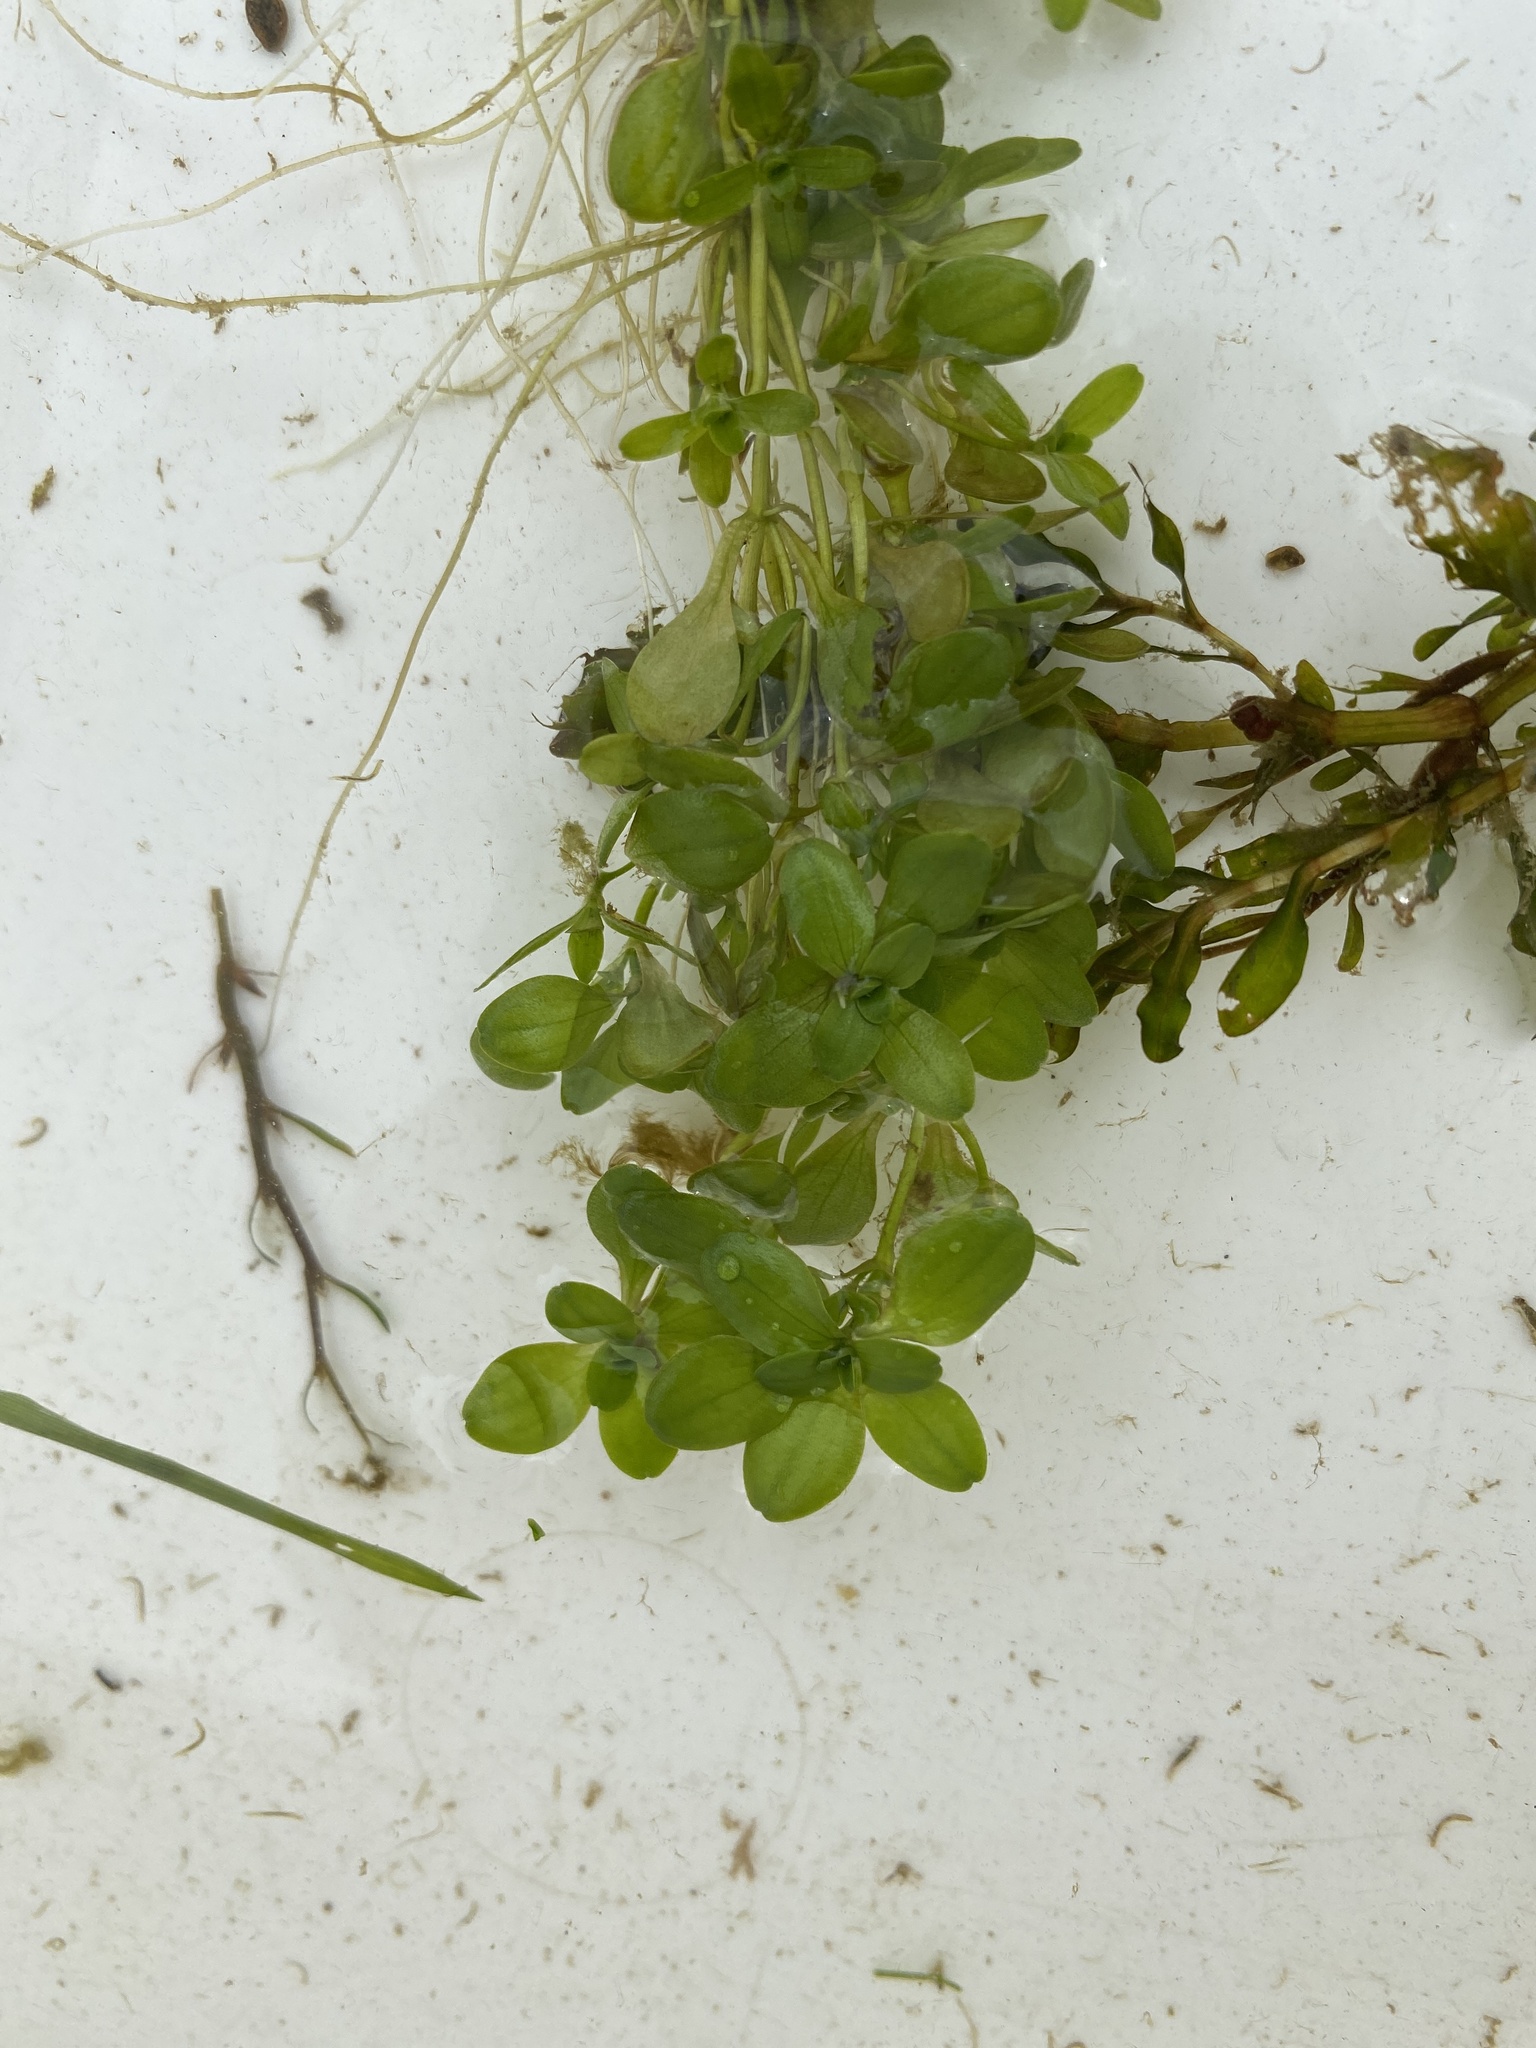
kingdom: Plantae
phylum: Tracheophyta
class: Magnoliopsida
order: Lamiales
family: Plantaginaceae
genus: Callitriche
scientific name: Callitriche stagnalis
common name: Common water-starwort
